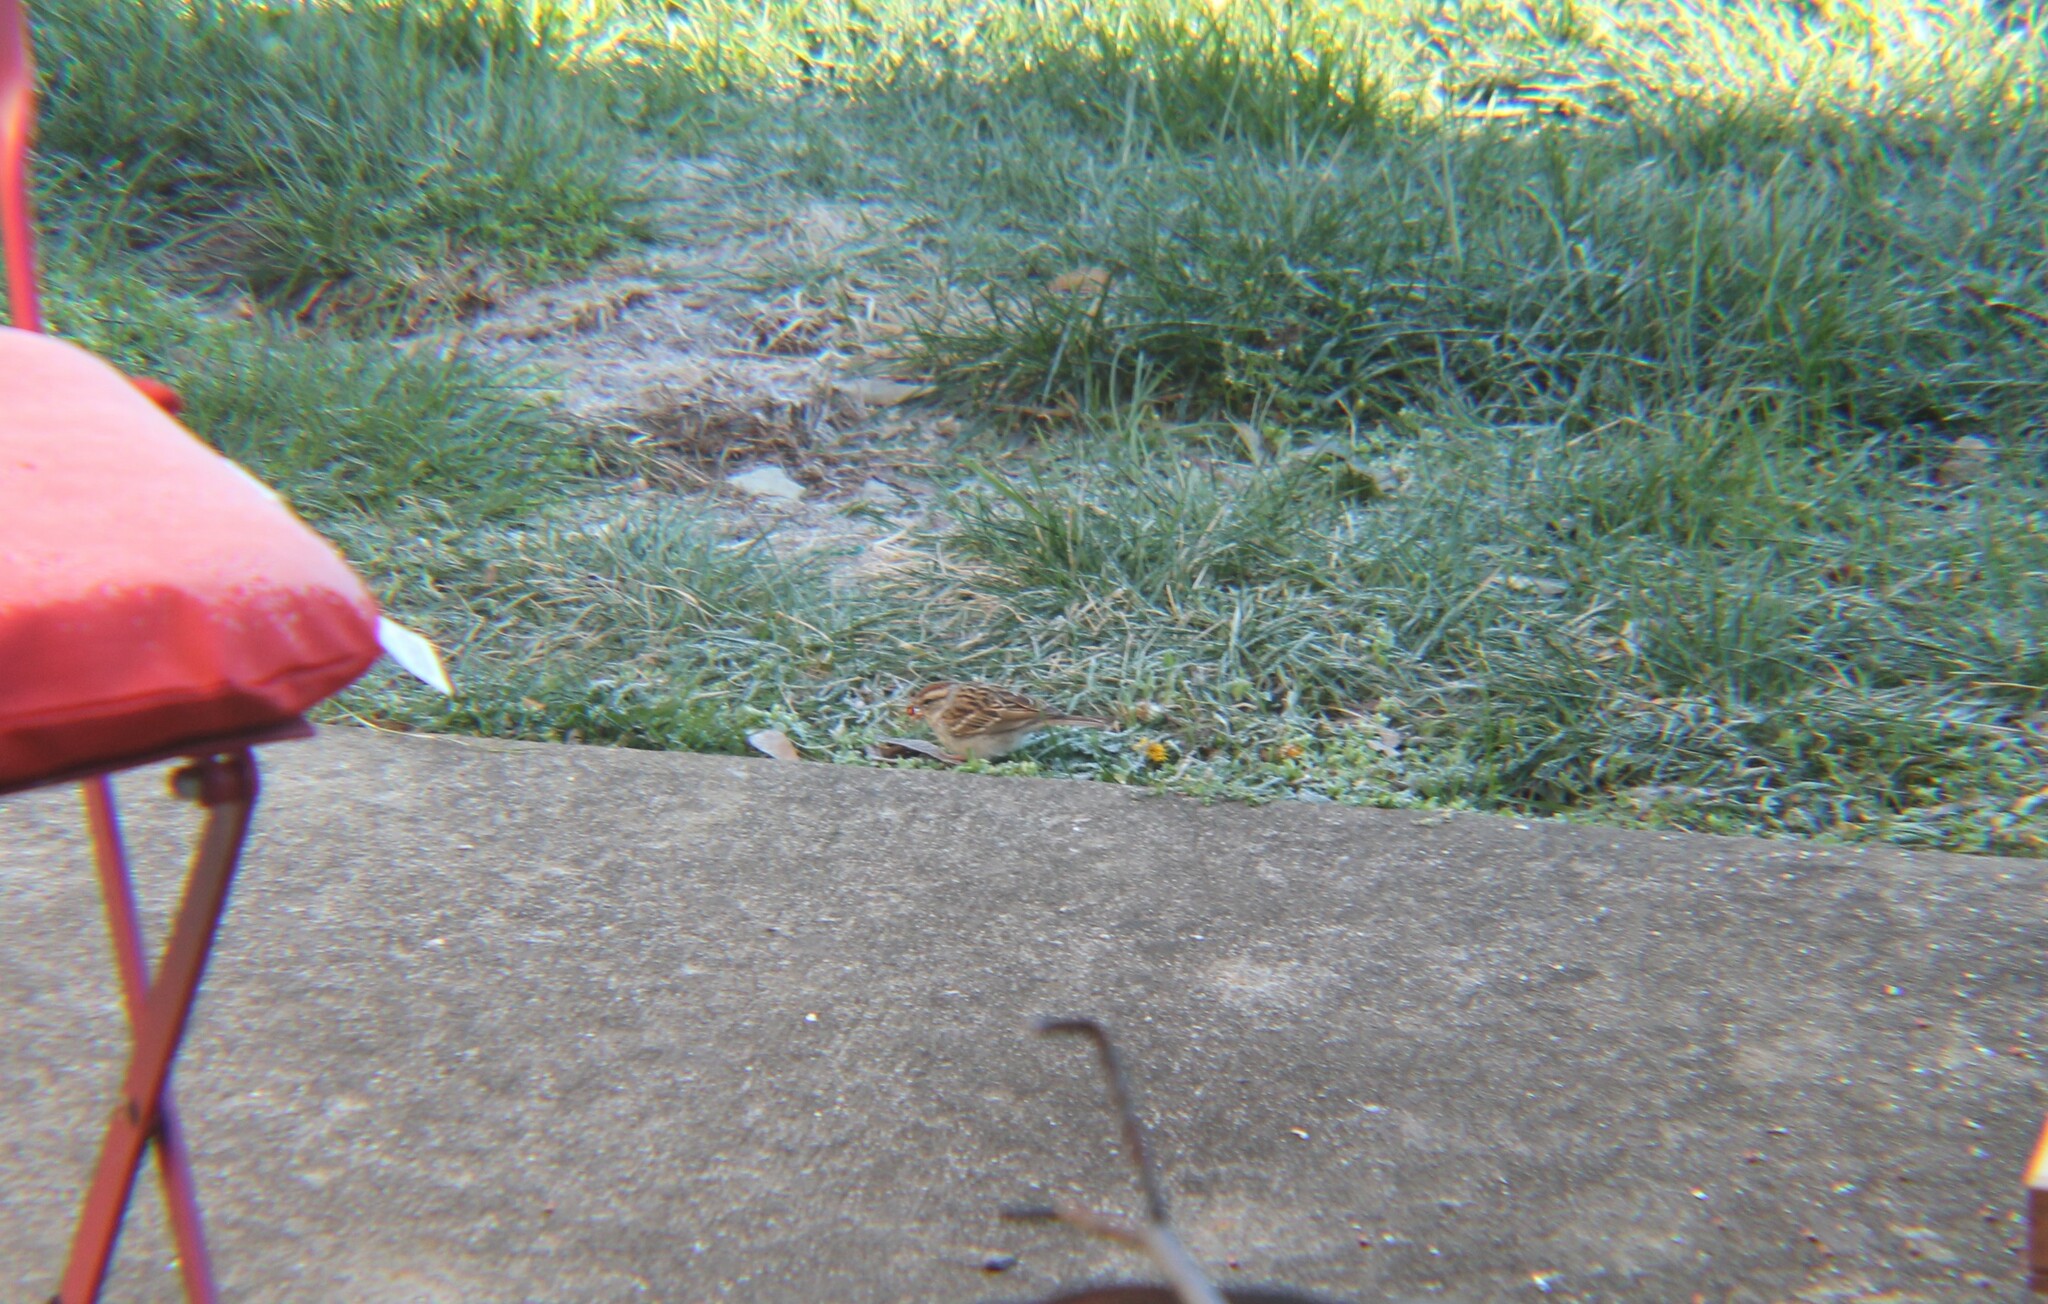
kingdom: Animalia
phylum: Chordata
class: Aves
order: Passeriformes
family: Passerellidae
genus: Spizella
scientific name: Spizella passerina
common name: Chipping sparrow
